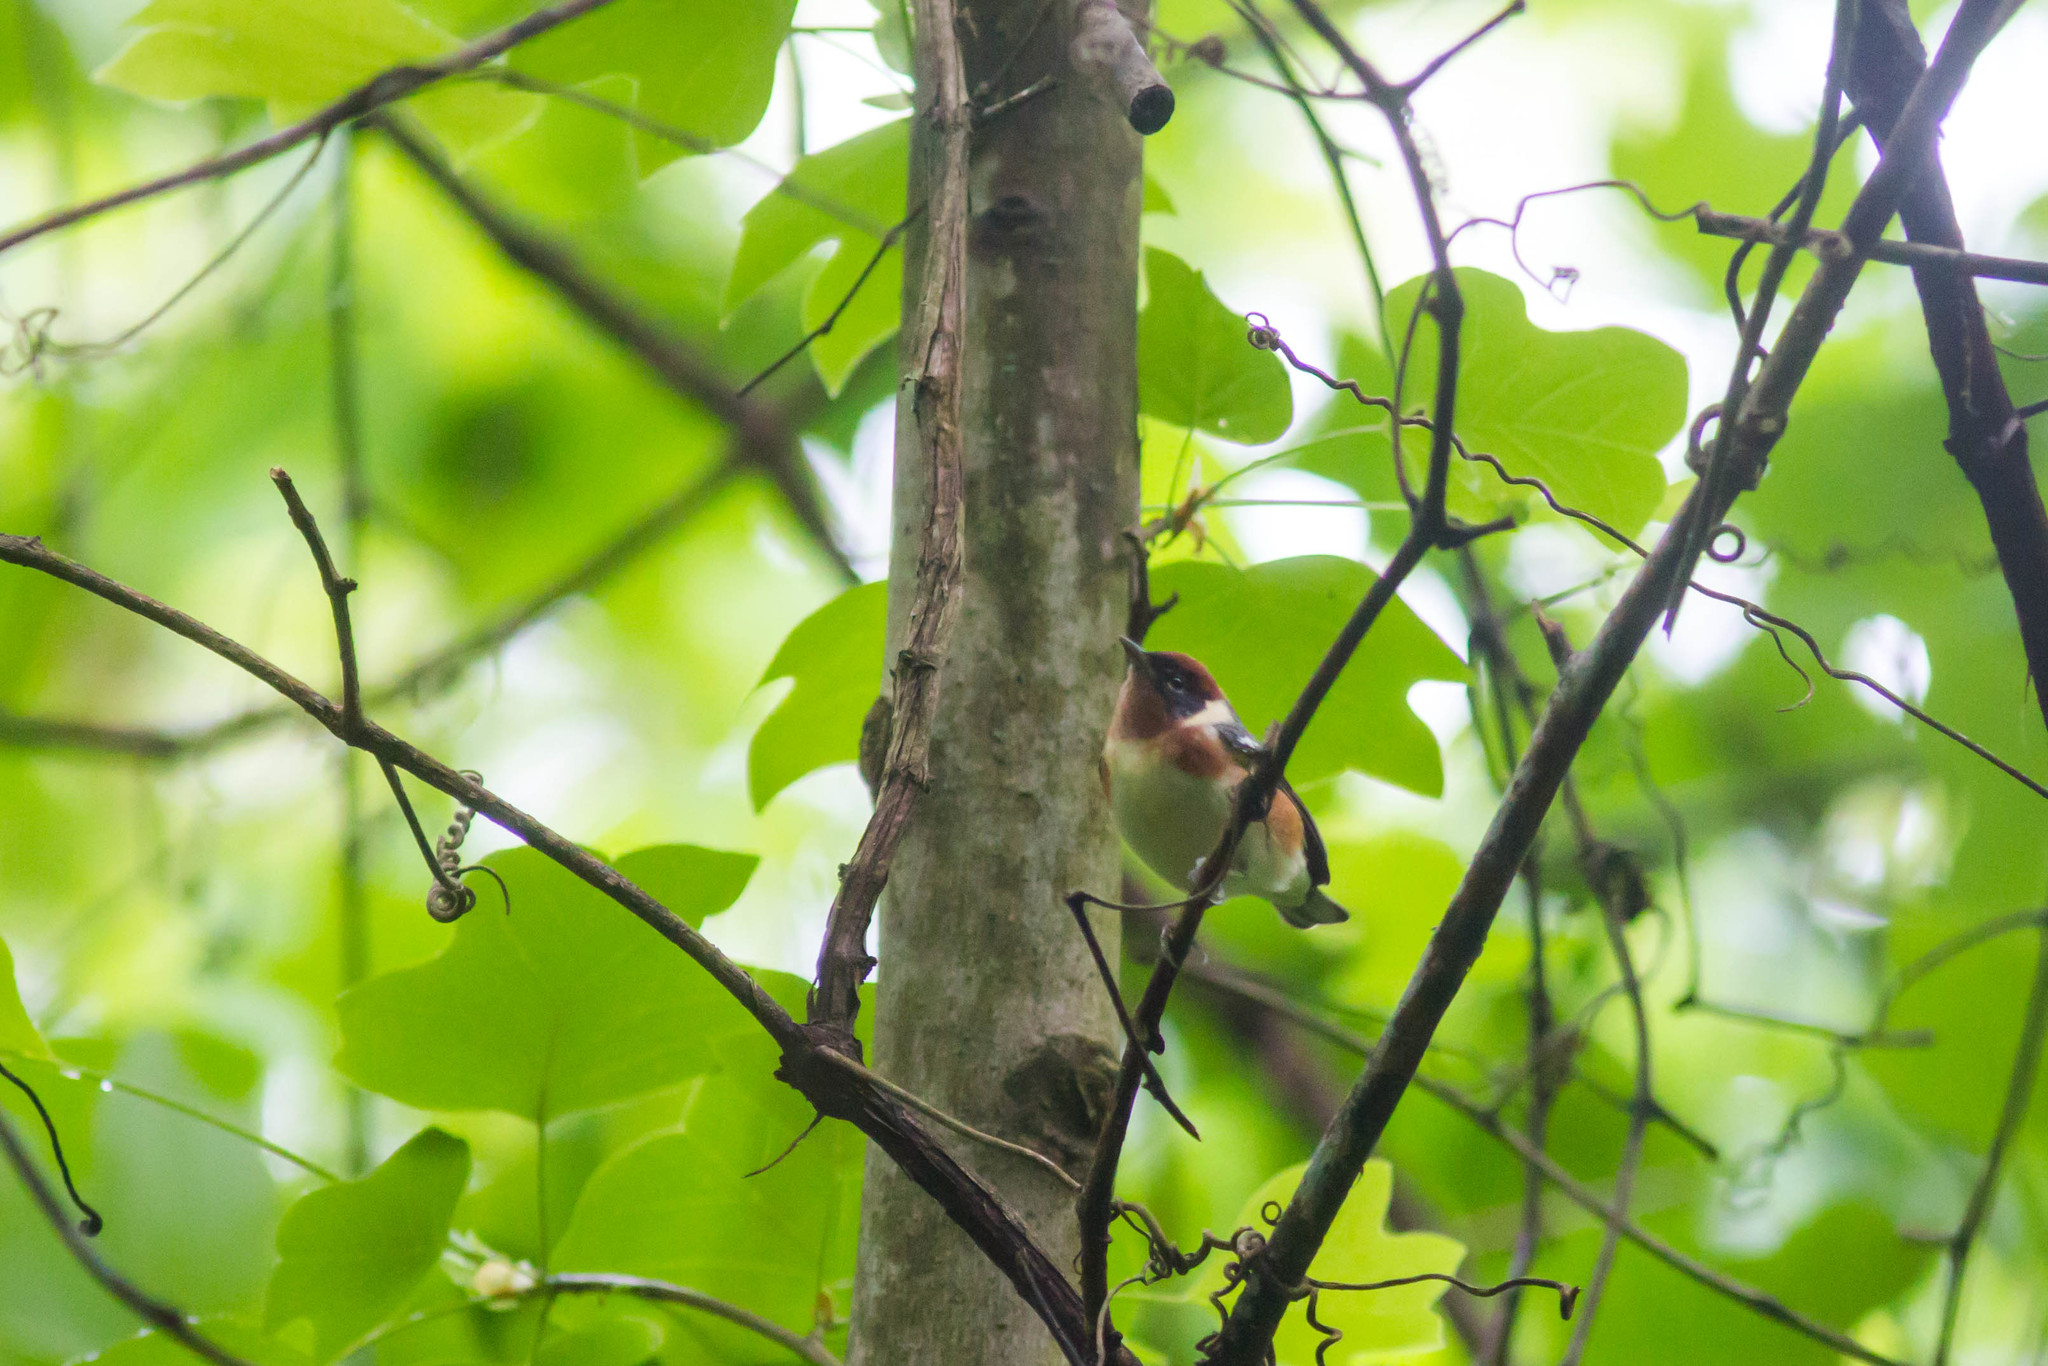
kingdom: Animalia
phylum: Chordata
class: Aves
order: Passeriformes
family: Parulidae
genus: Setophaga
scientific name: Setophaga castanea
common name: Bay-breasted warbler
